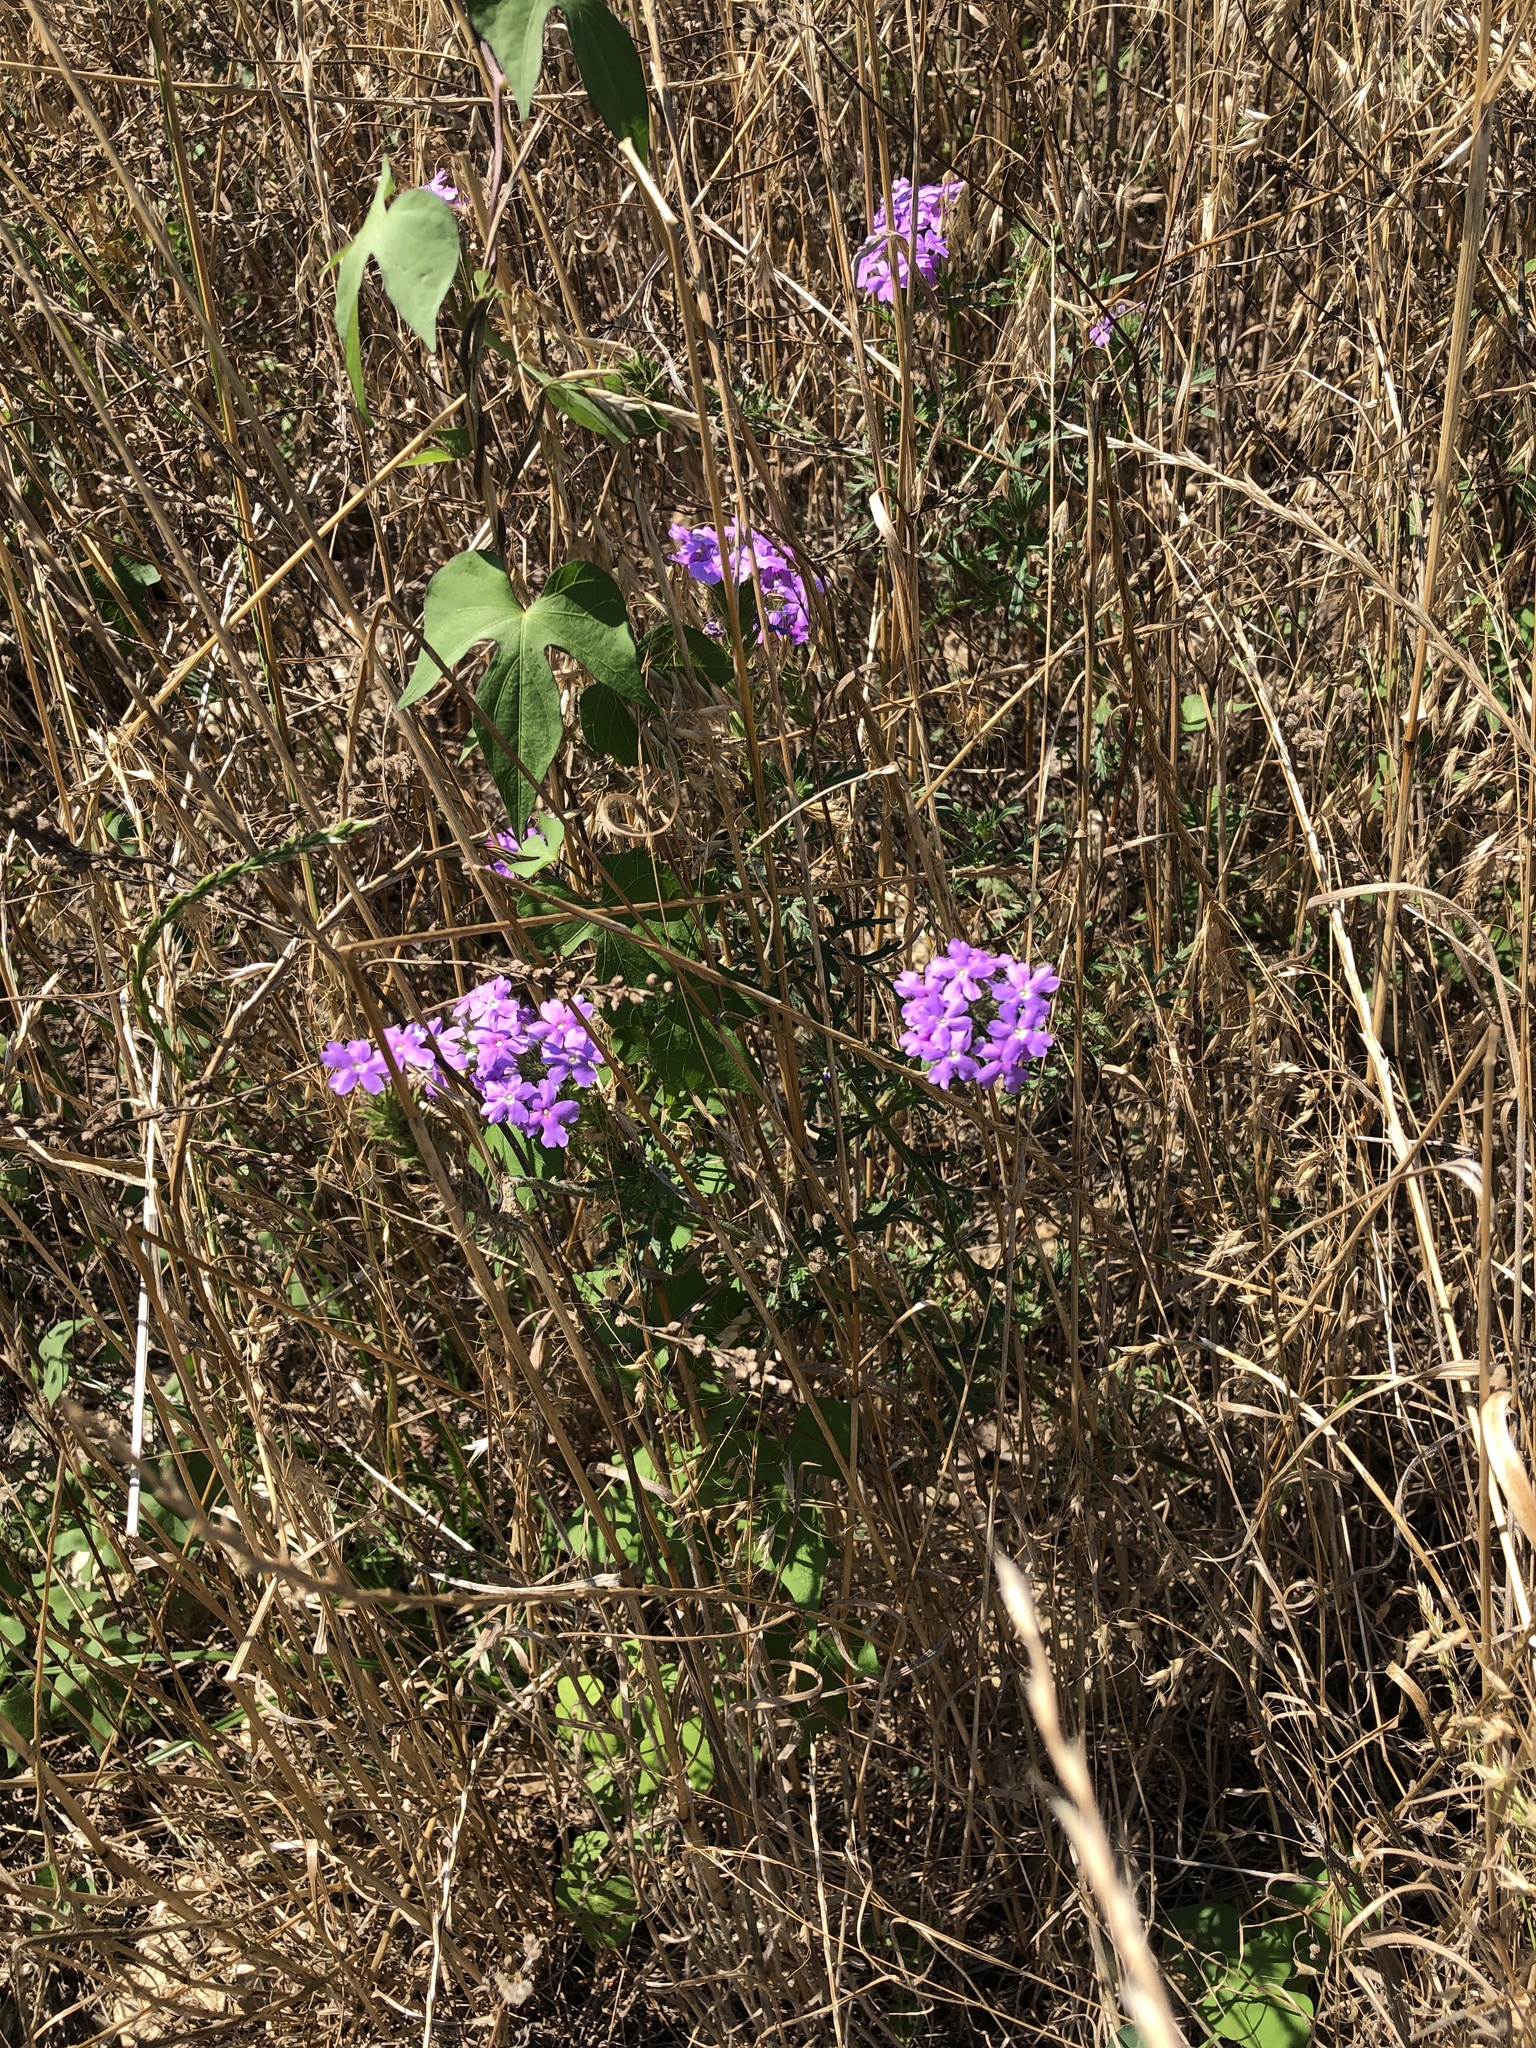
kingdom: Plantae
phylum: Tracheophyta
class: Magnoliopsida
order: Lamiales
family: Verbenaceae
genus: Verbena
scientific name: Verbena bipinnatifida
